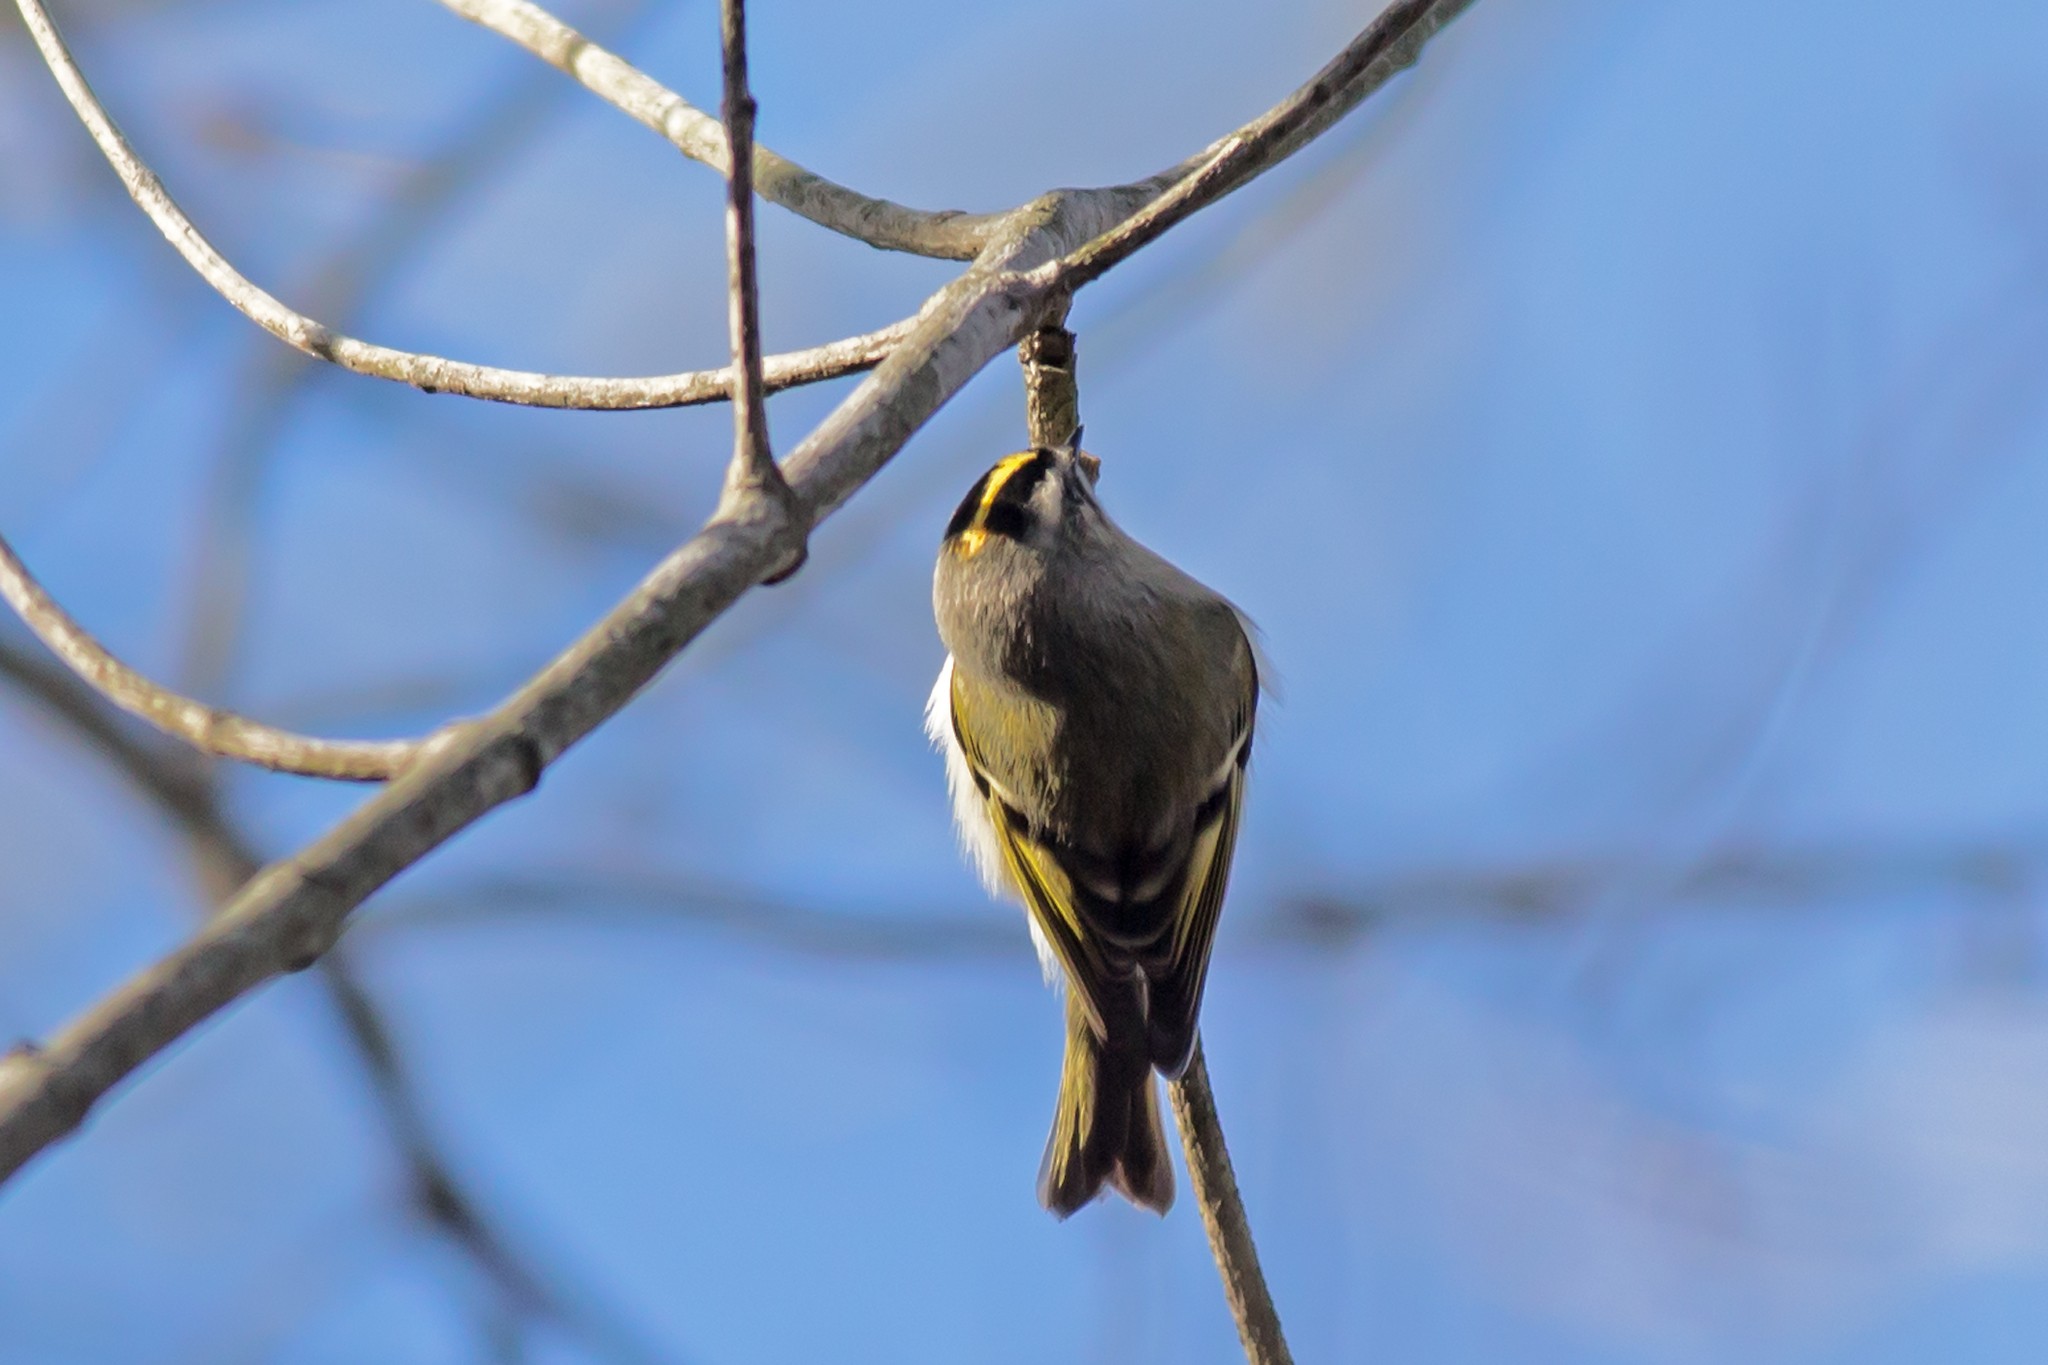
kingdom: Animalia
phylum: Chordata
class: Aves
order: Passeriformes
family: Regulidae
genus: Regulus
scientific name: Regulus satrapa
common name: Golden-crowned kinglet
